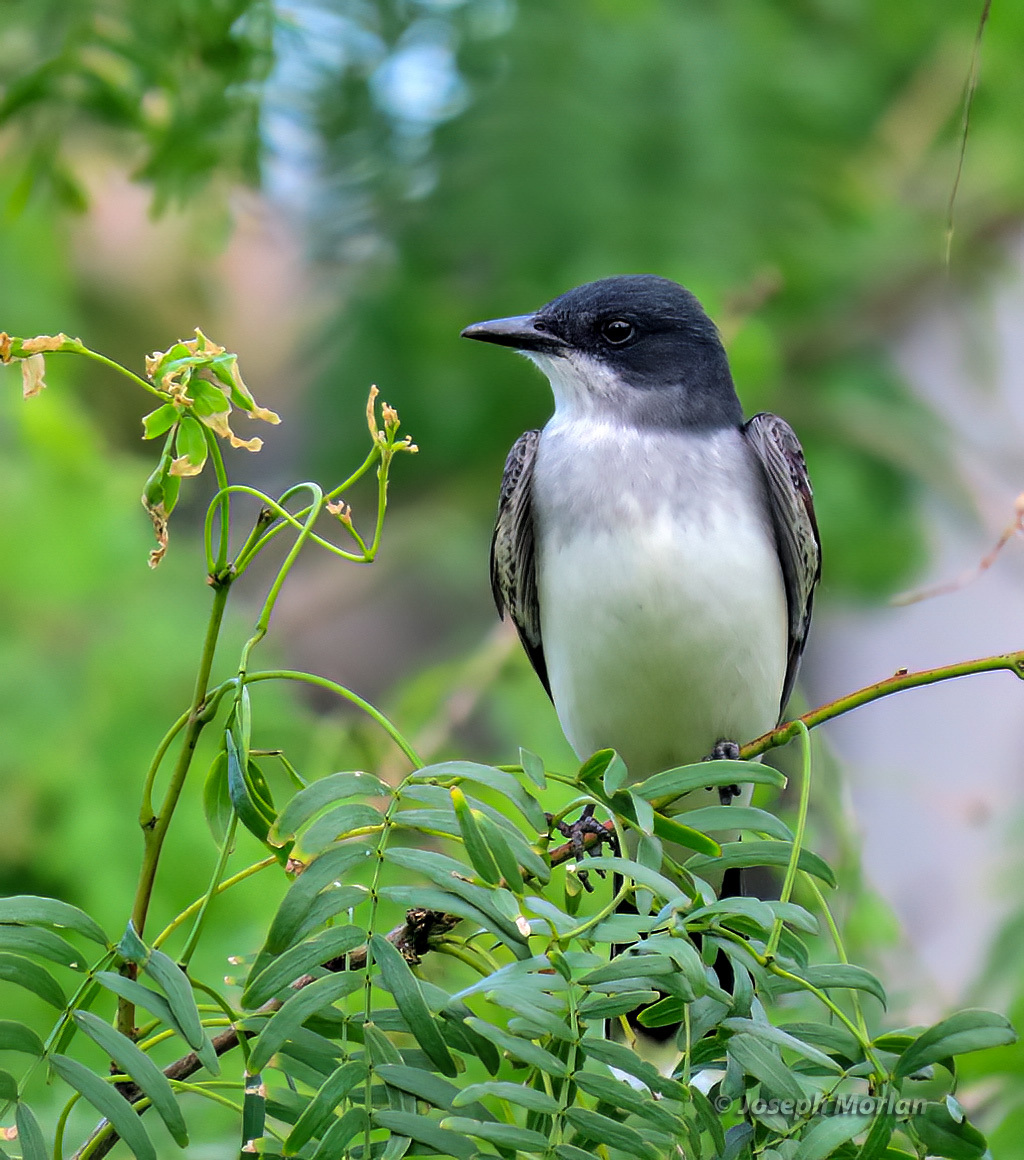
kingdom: Animalia
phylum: Chordata
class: Aves
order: Passeriformes
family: Tyrannidae
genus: Tyrannus
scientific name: Tyrannus tyrannus
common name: Eastern kingbird
